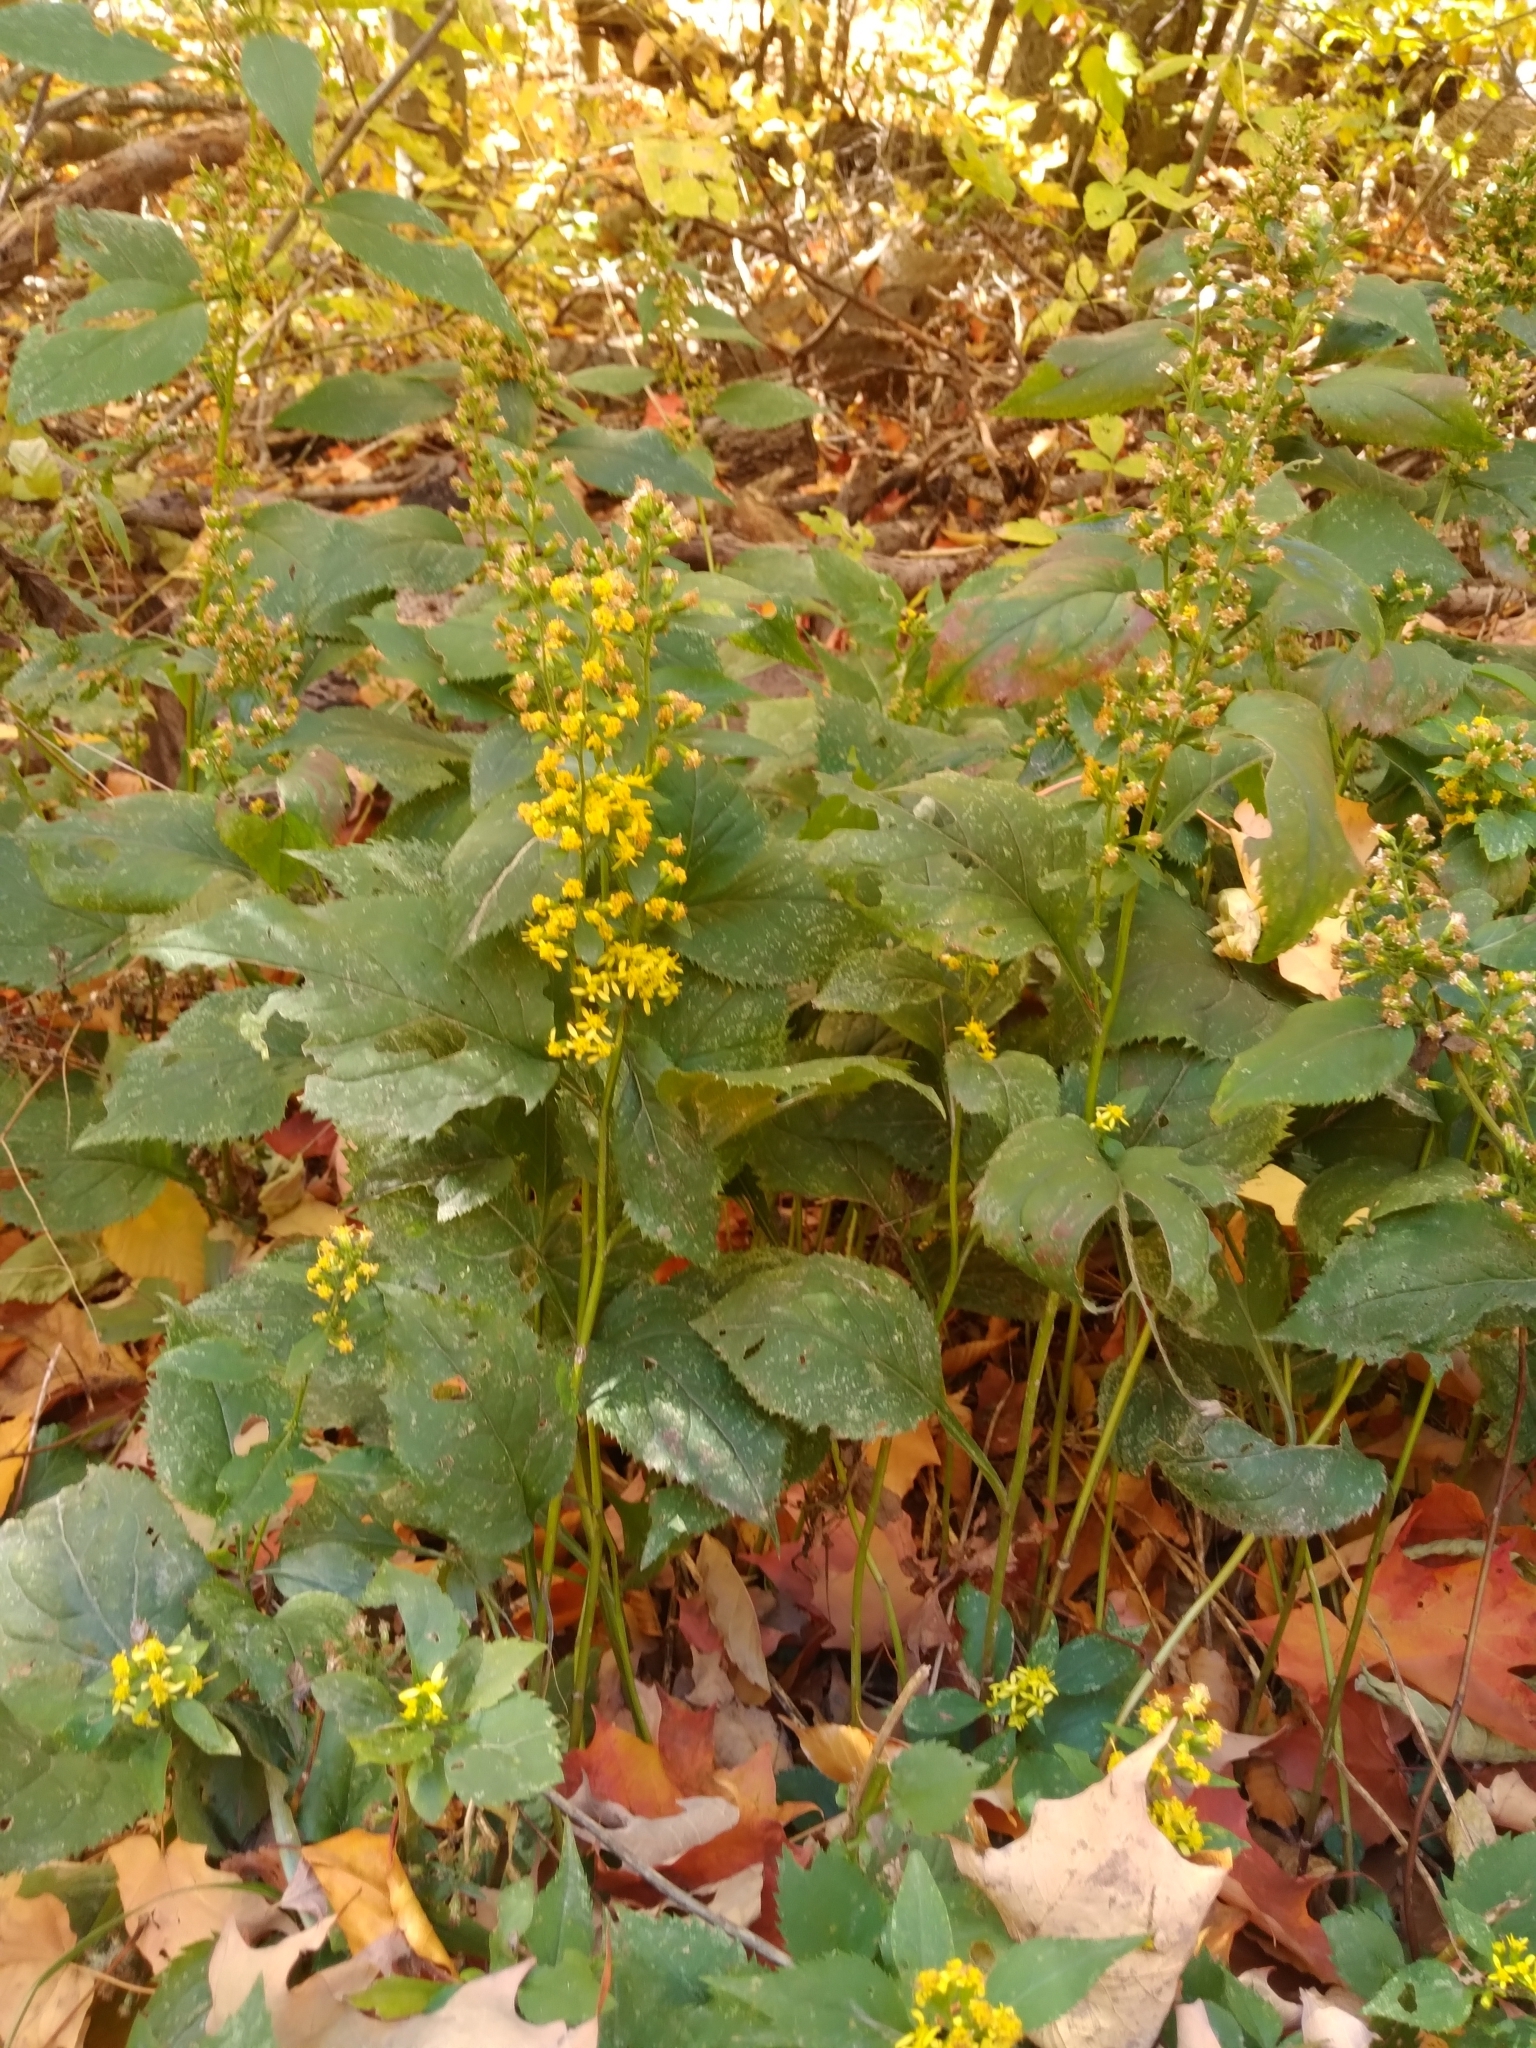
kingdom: Plantae
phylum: Tracheophyta
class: Magnoliopsida
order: Asterales
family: Asteraceae
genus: Solidago
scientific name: Solidago flexicaulis
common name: Zig-zag goldenrod
